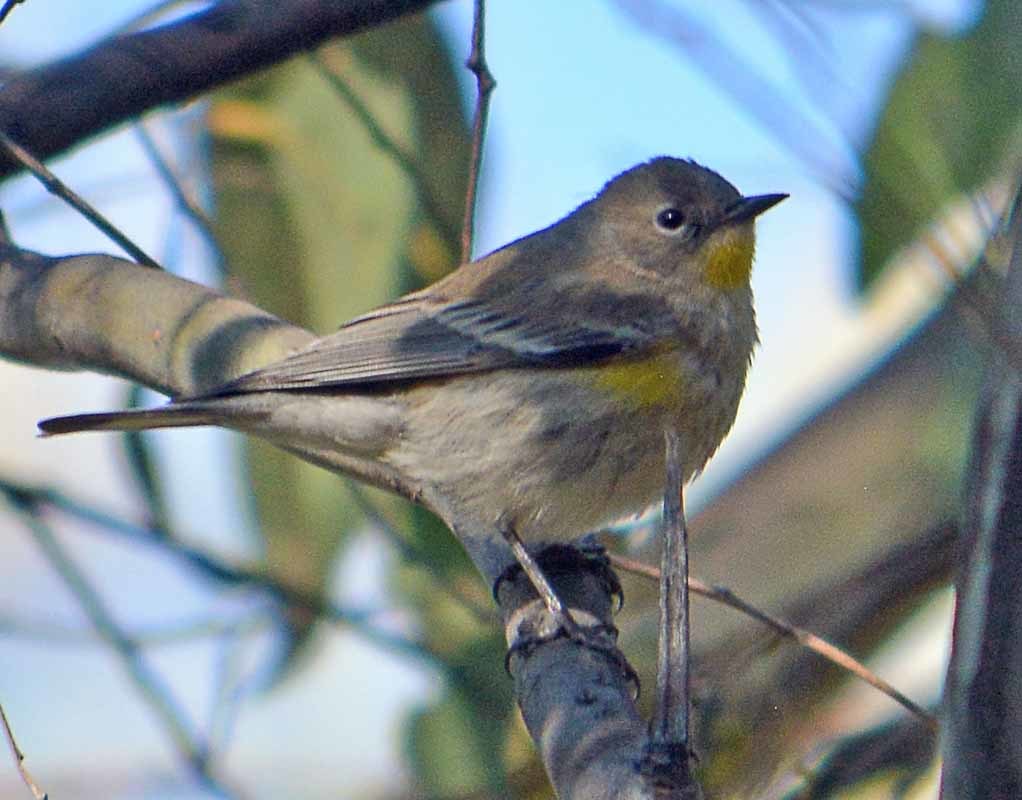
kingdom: Animalia
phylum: Chordata
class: Aves
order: Passeriformes
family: Parulidae
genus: Setophaga
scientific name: Setophaga coronata
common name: Myrtle warbler
